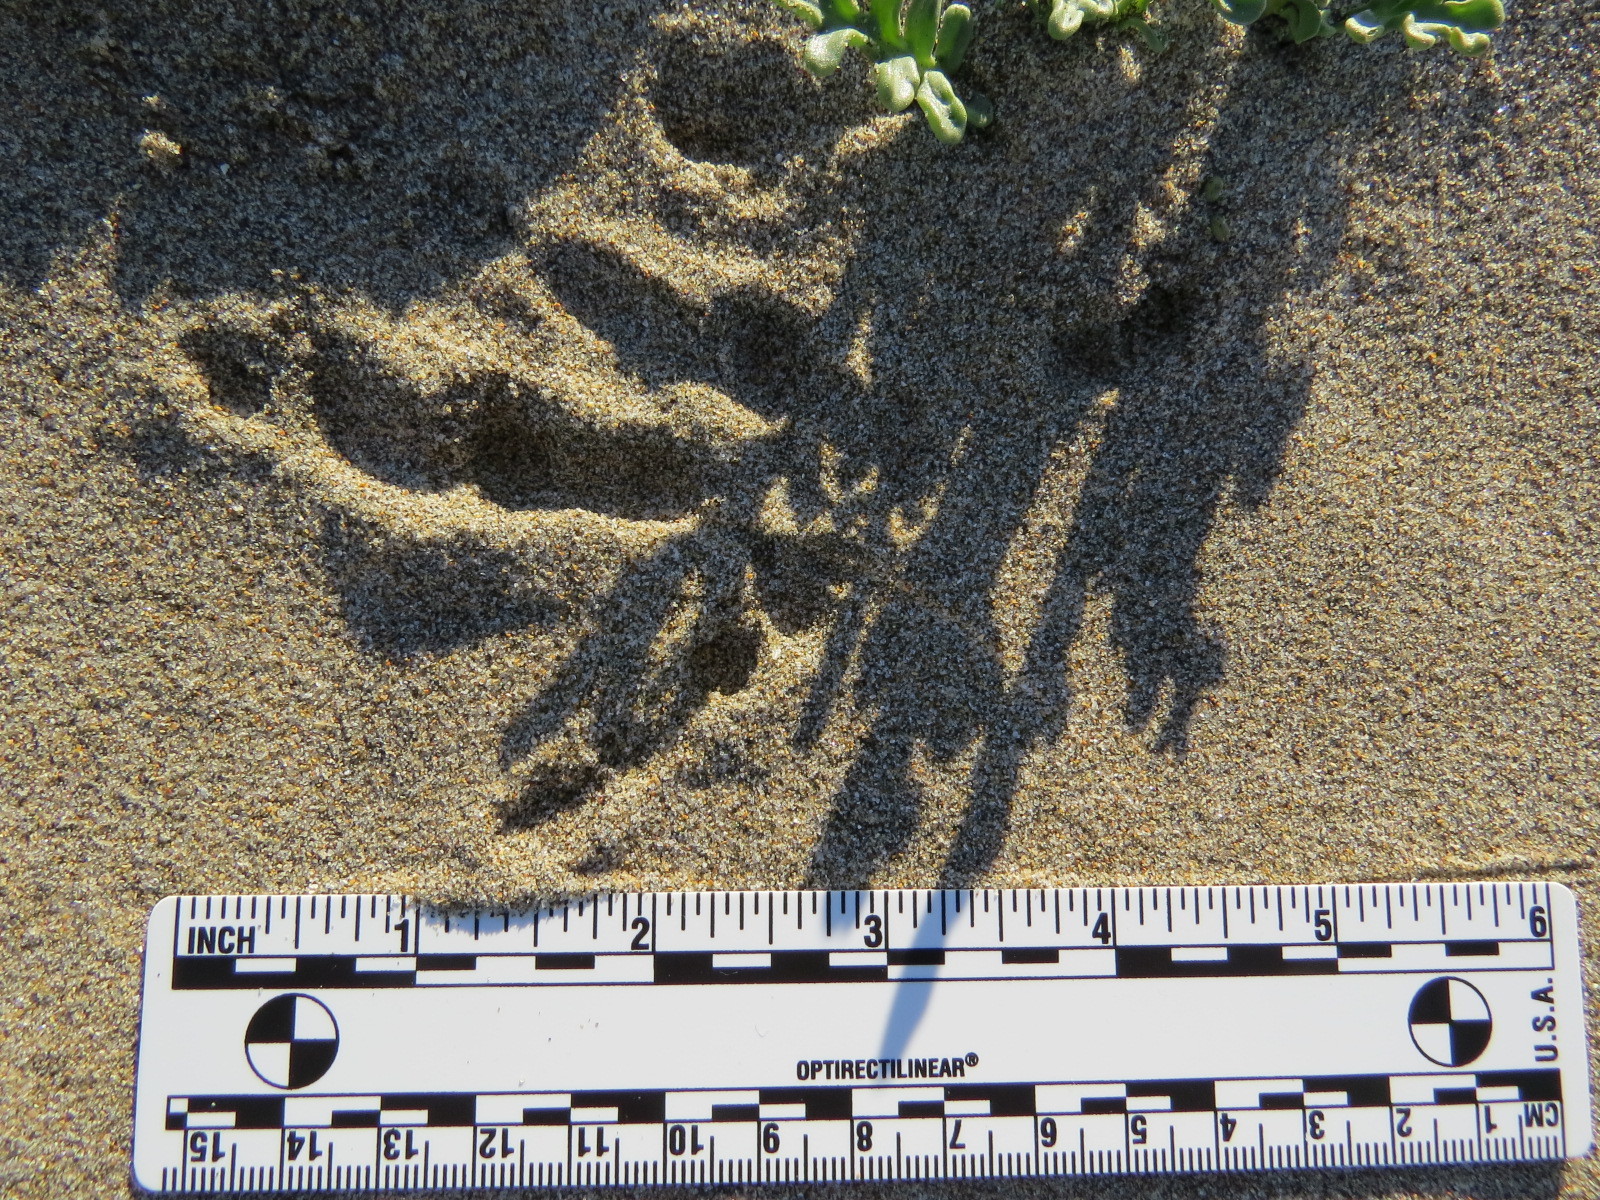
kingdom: Animalia
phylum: Chordata
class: Aves
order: Falconiformes
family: Falconidae
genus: Falco
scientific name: Falco peregrinus
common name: Peregrine falcon
